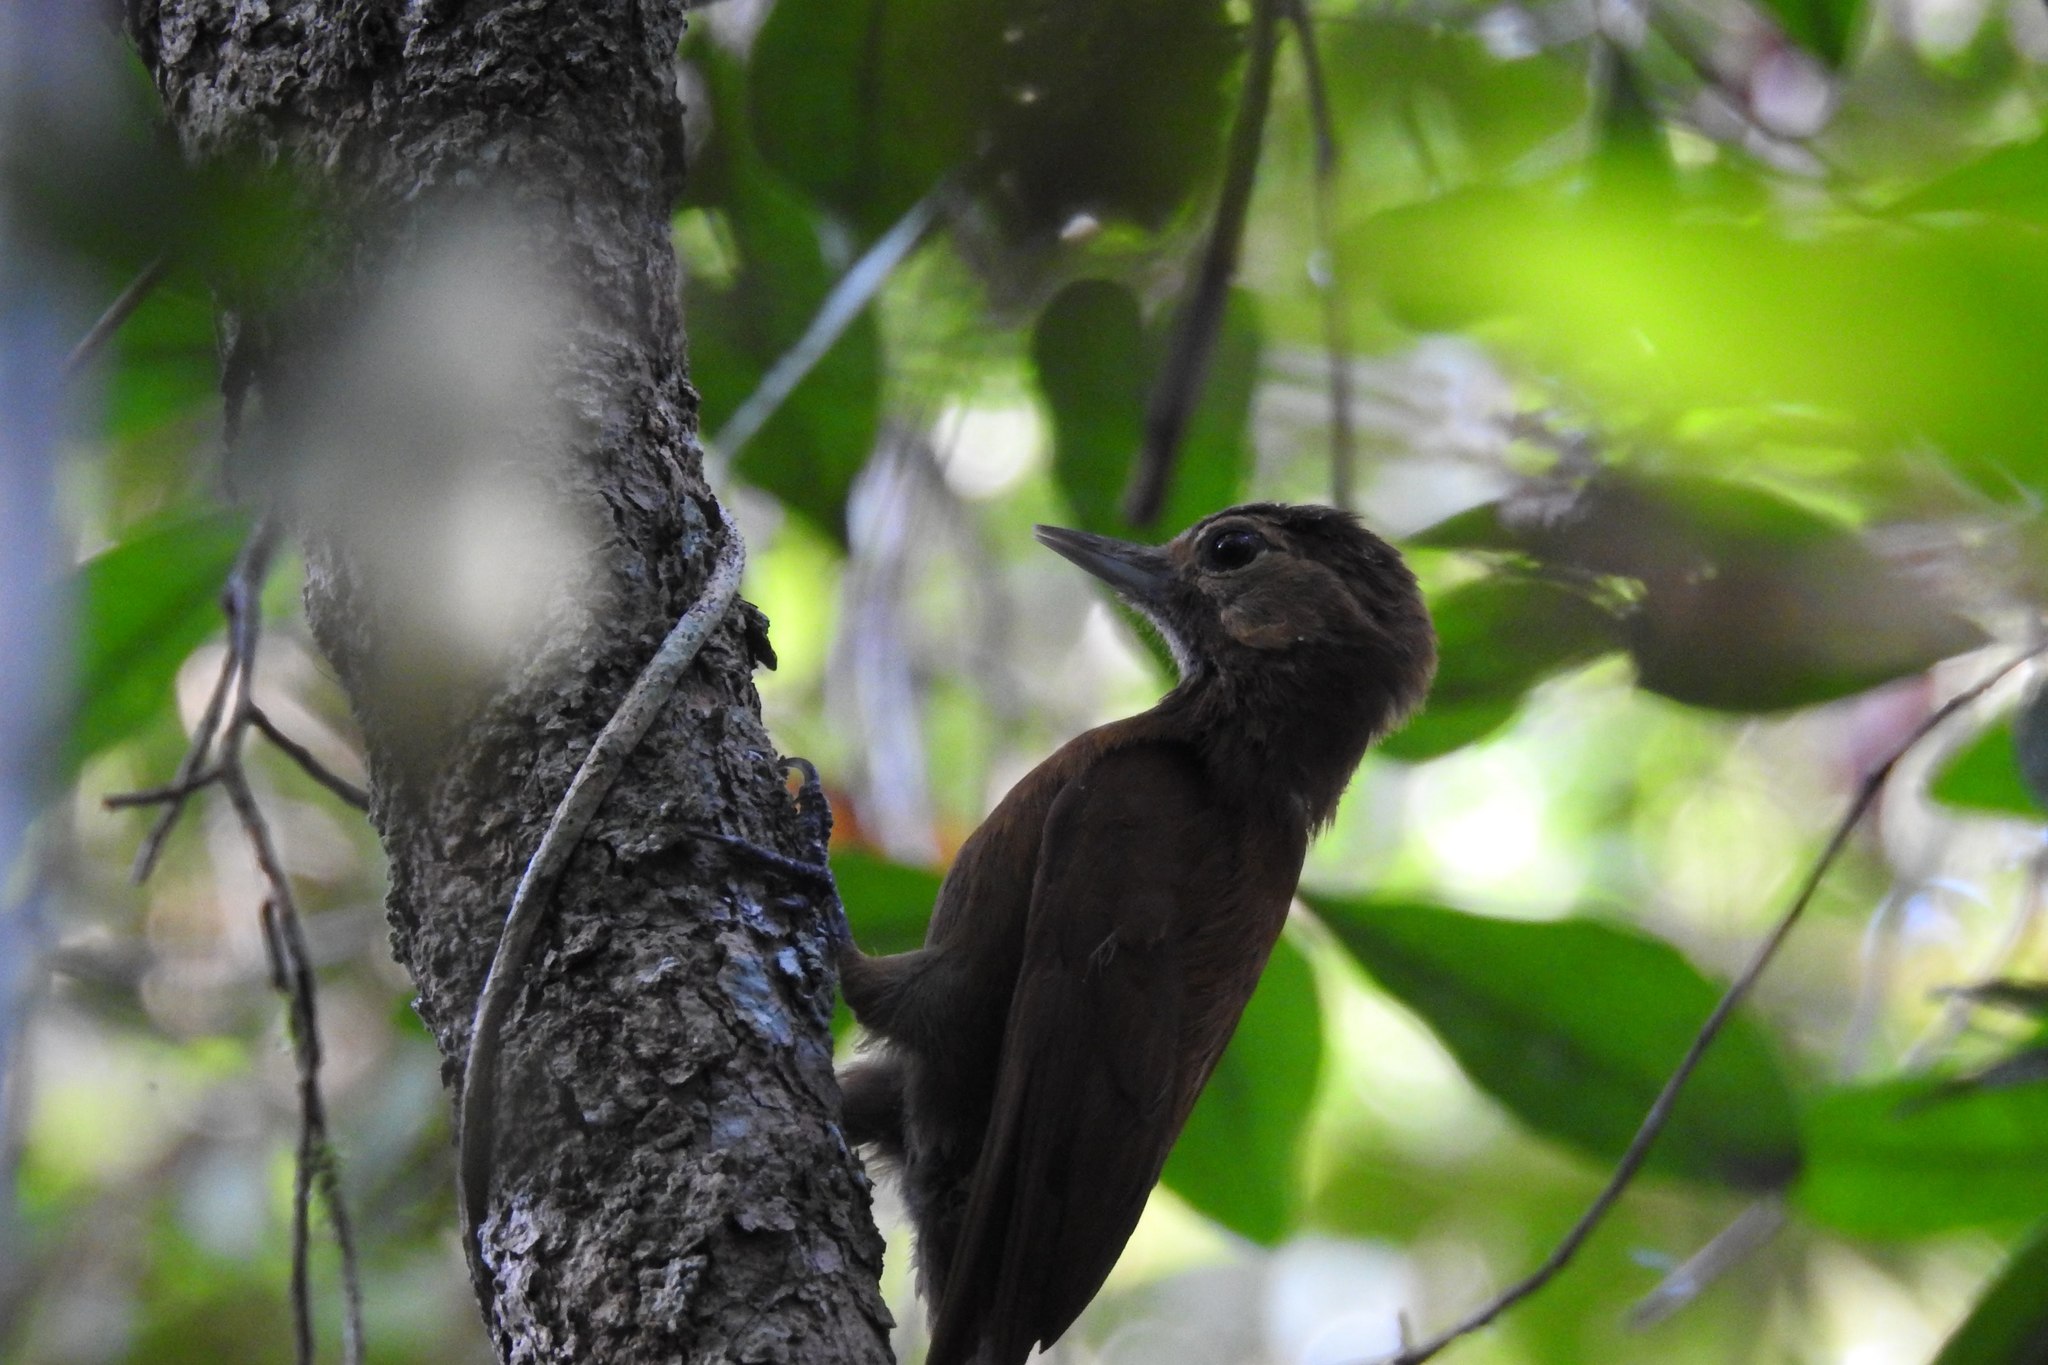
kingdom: Animalia
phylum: Chordata
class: Aves
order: Piciformes
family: Picidae
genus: Leuconotopicus
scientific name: Leuconotopicus fumigatus
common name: Smoky-brown woodpecker
